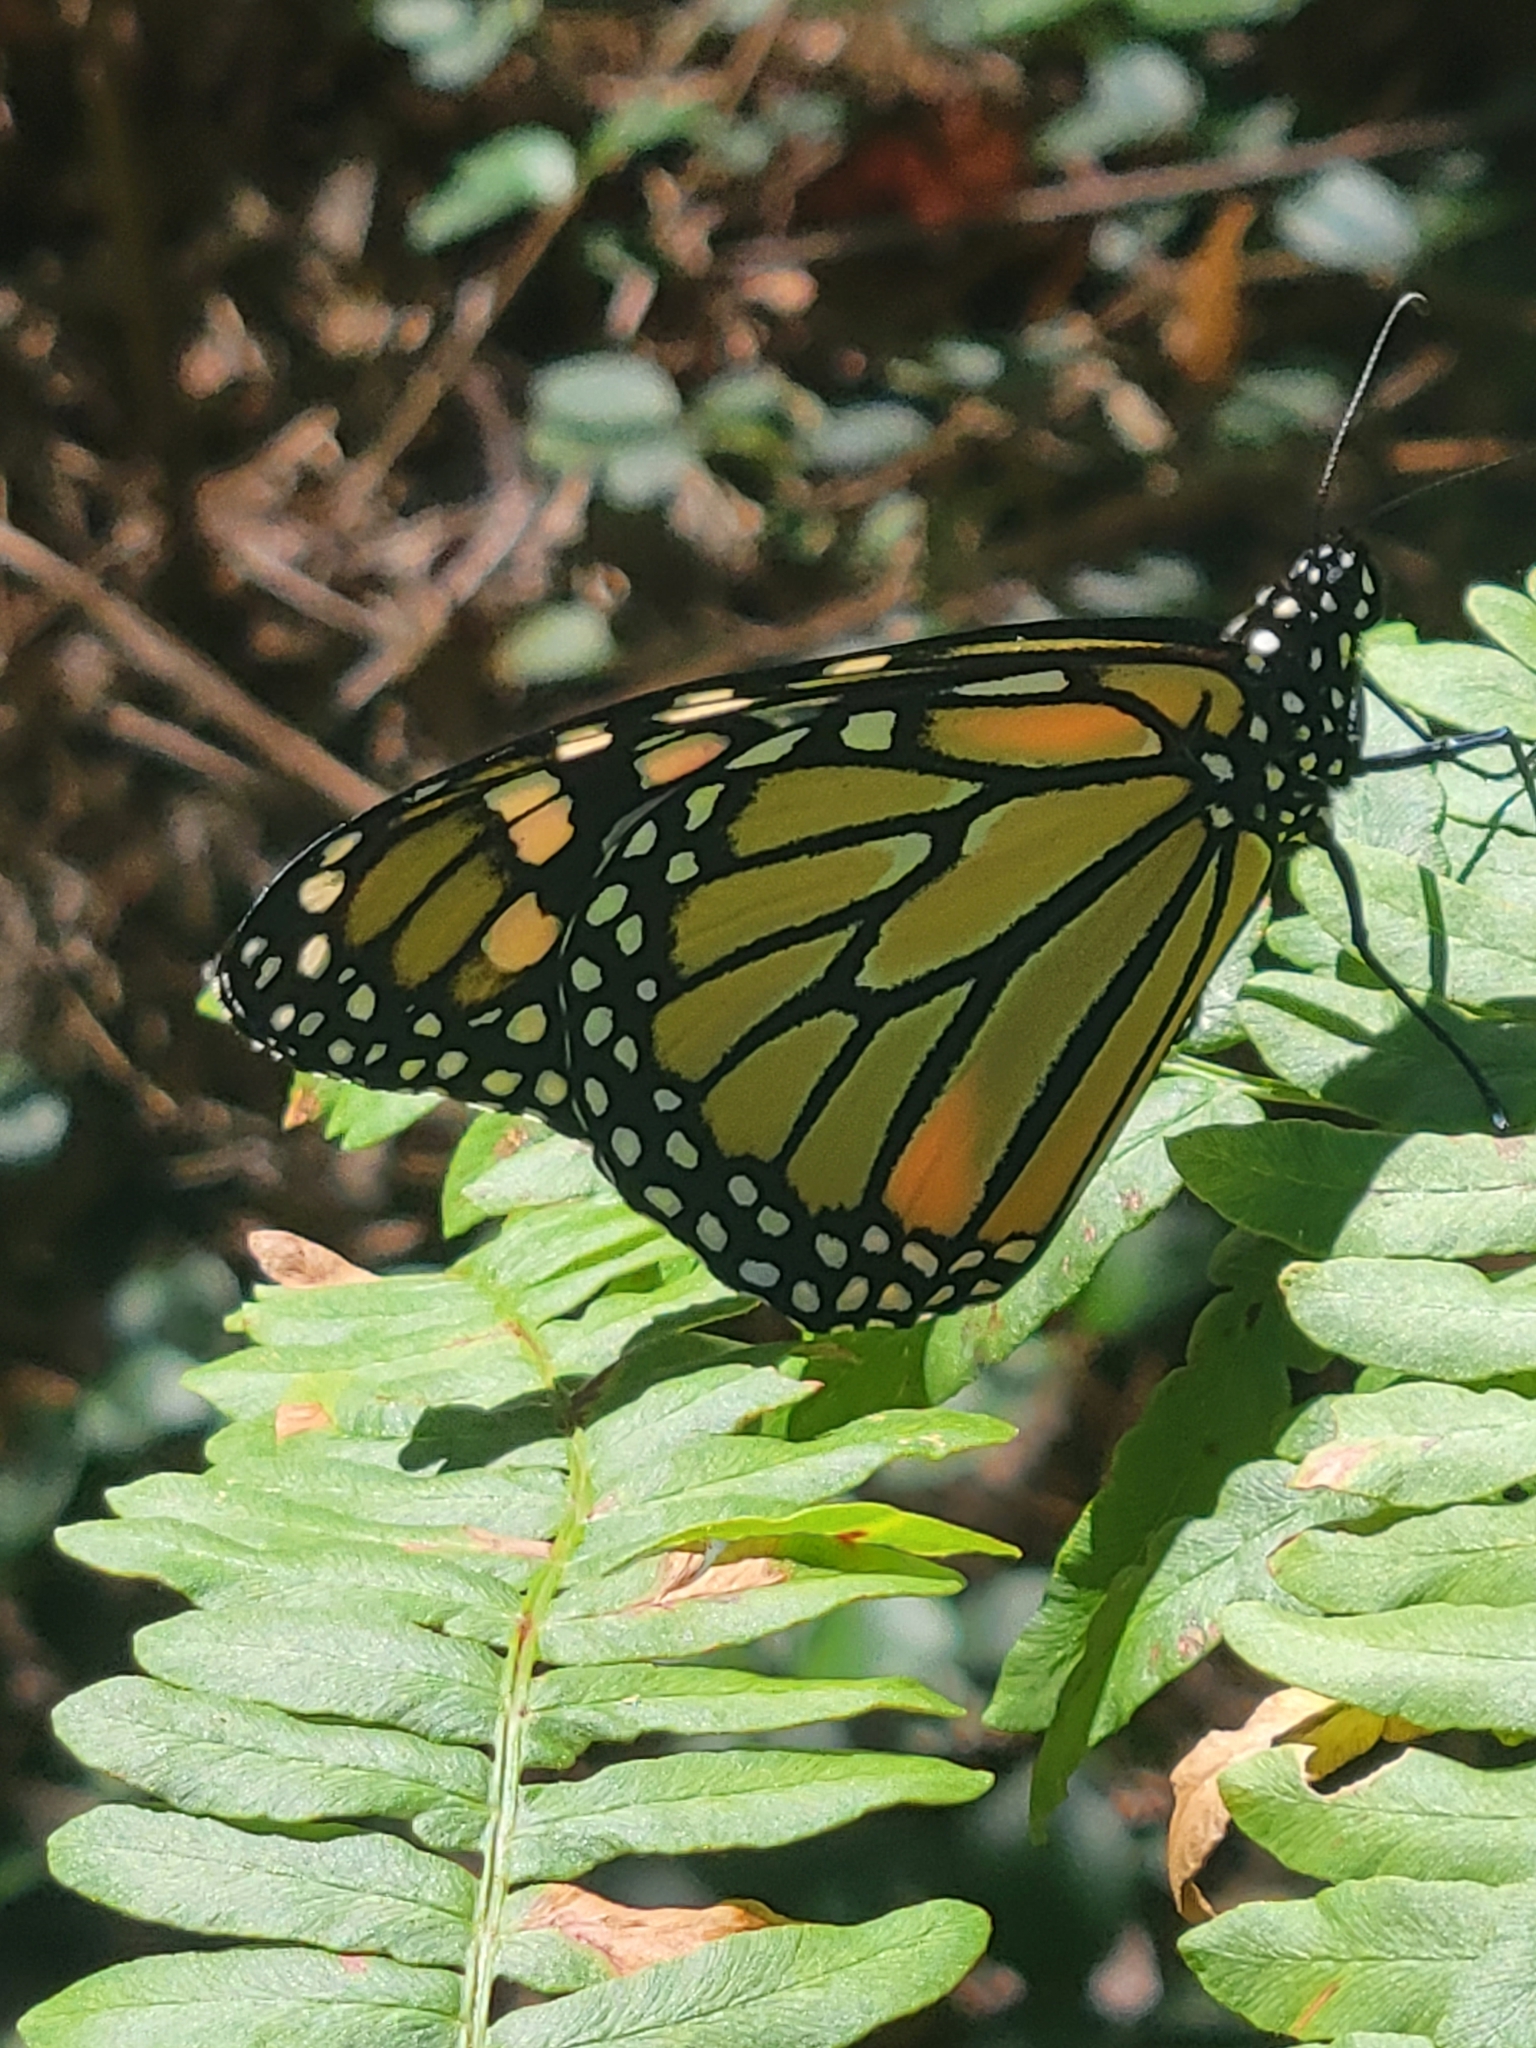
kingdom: Animalia
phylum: Arthropoda
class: Insecta
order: Lepidoptera
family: Nymphalidae
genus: Danaus
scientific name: Danaus plexippus
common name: Monarch
